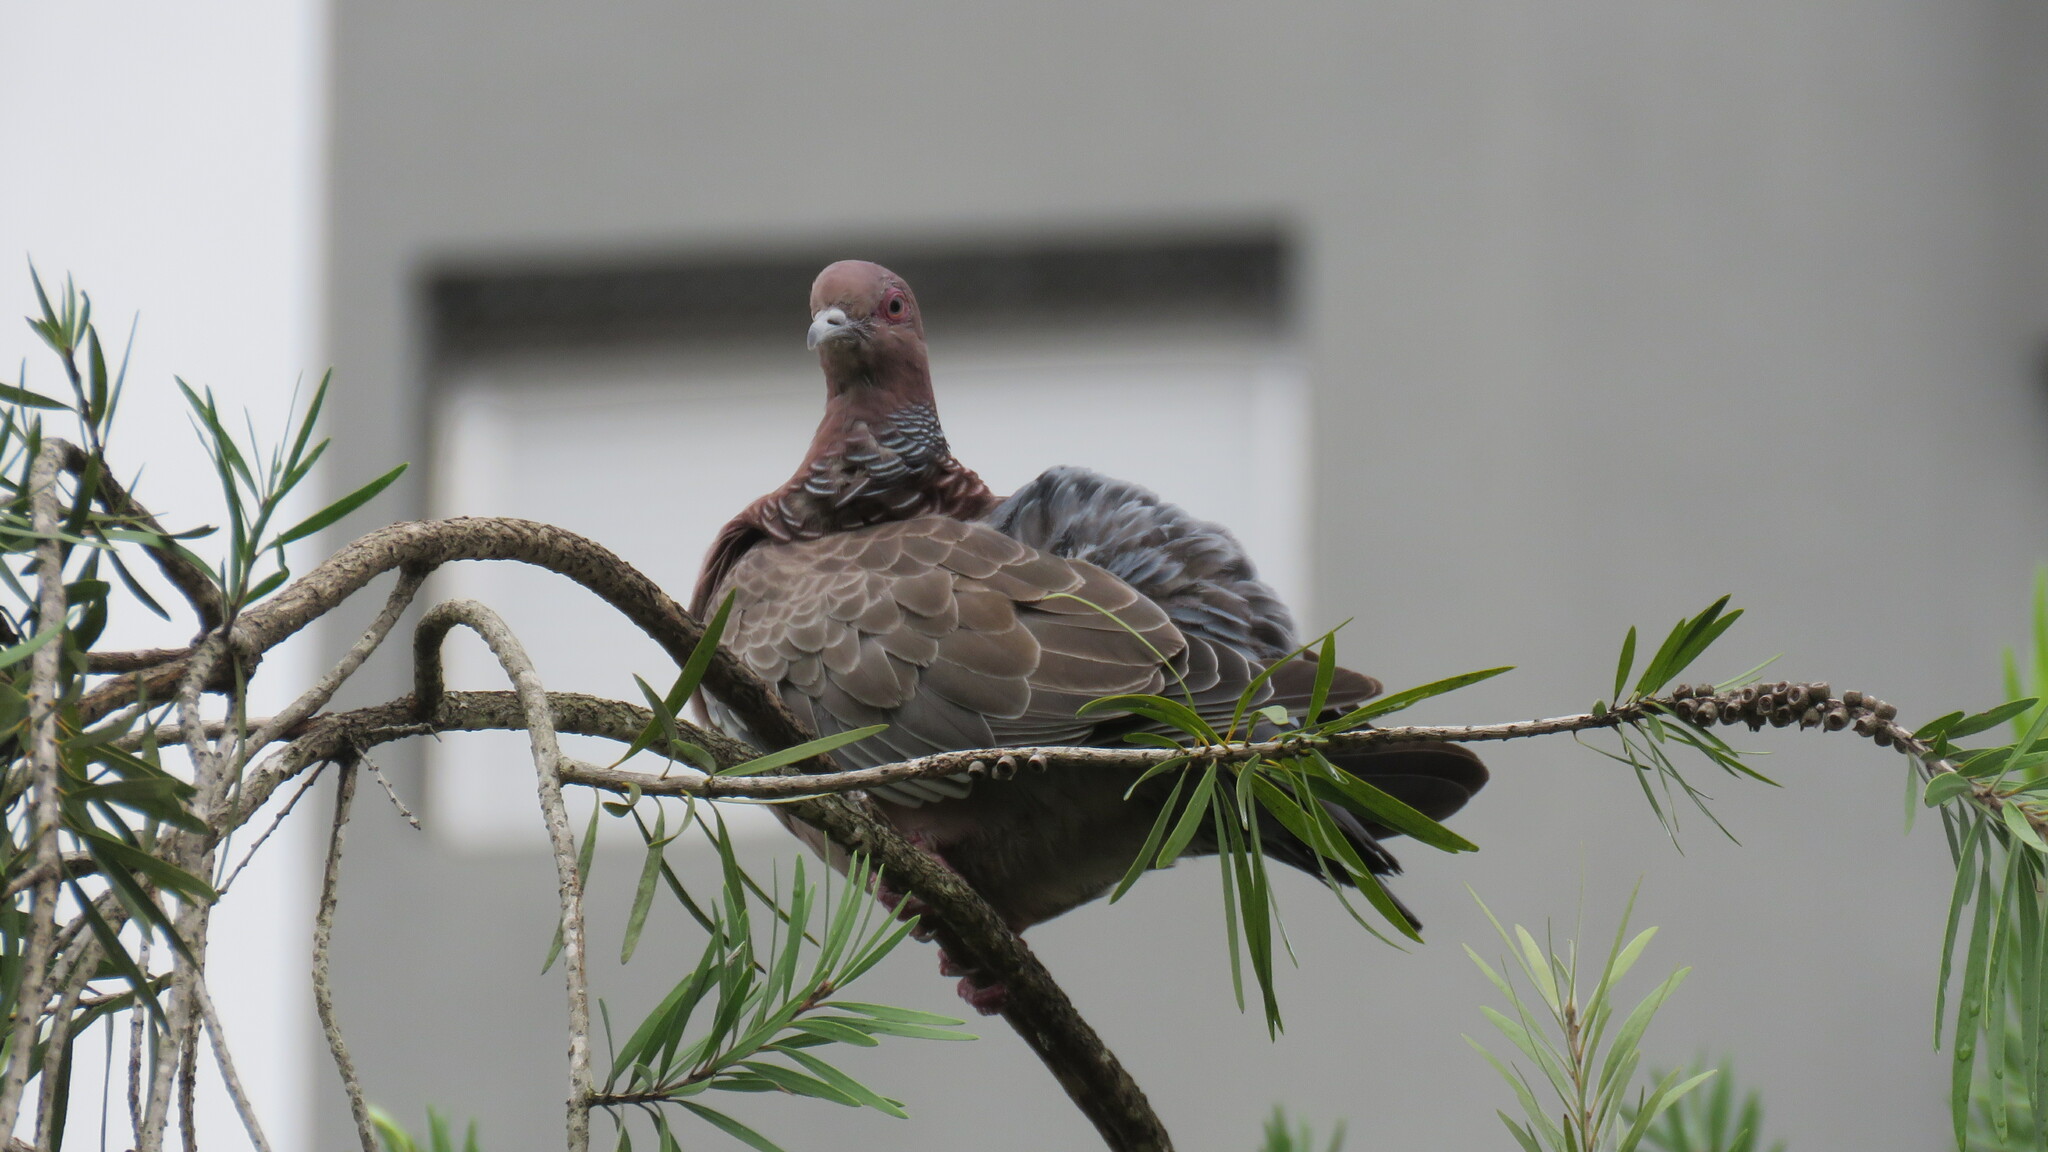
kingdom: Animalia
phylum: Chordata
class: Aves
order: Columbiformes
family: Columbidae
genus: Patagioenas
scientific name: Patagioenas picazuro
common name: Picazuro pigeon
